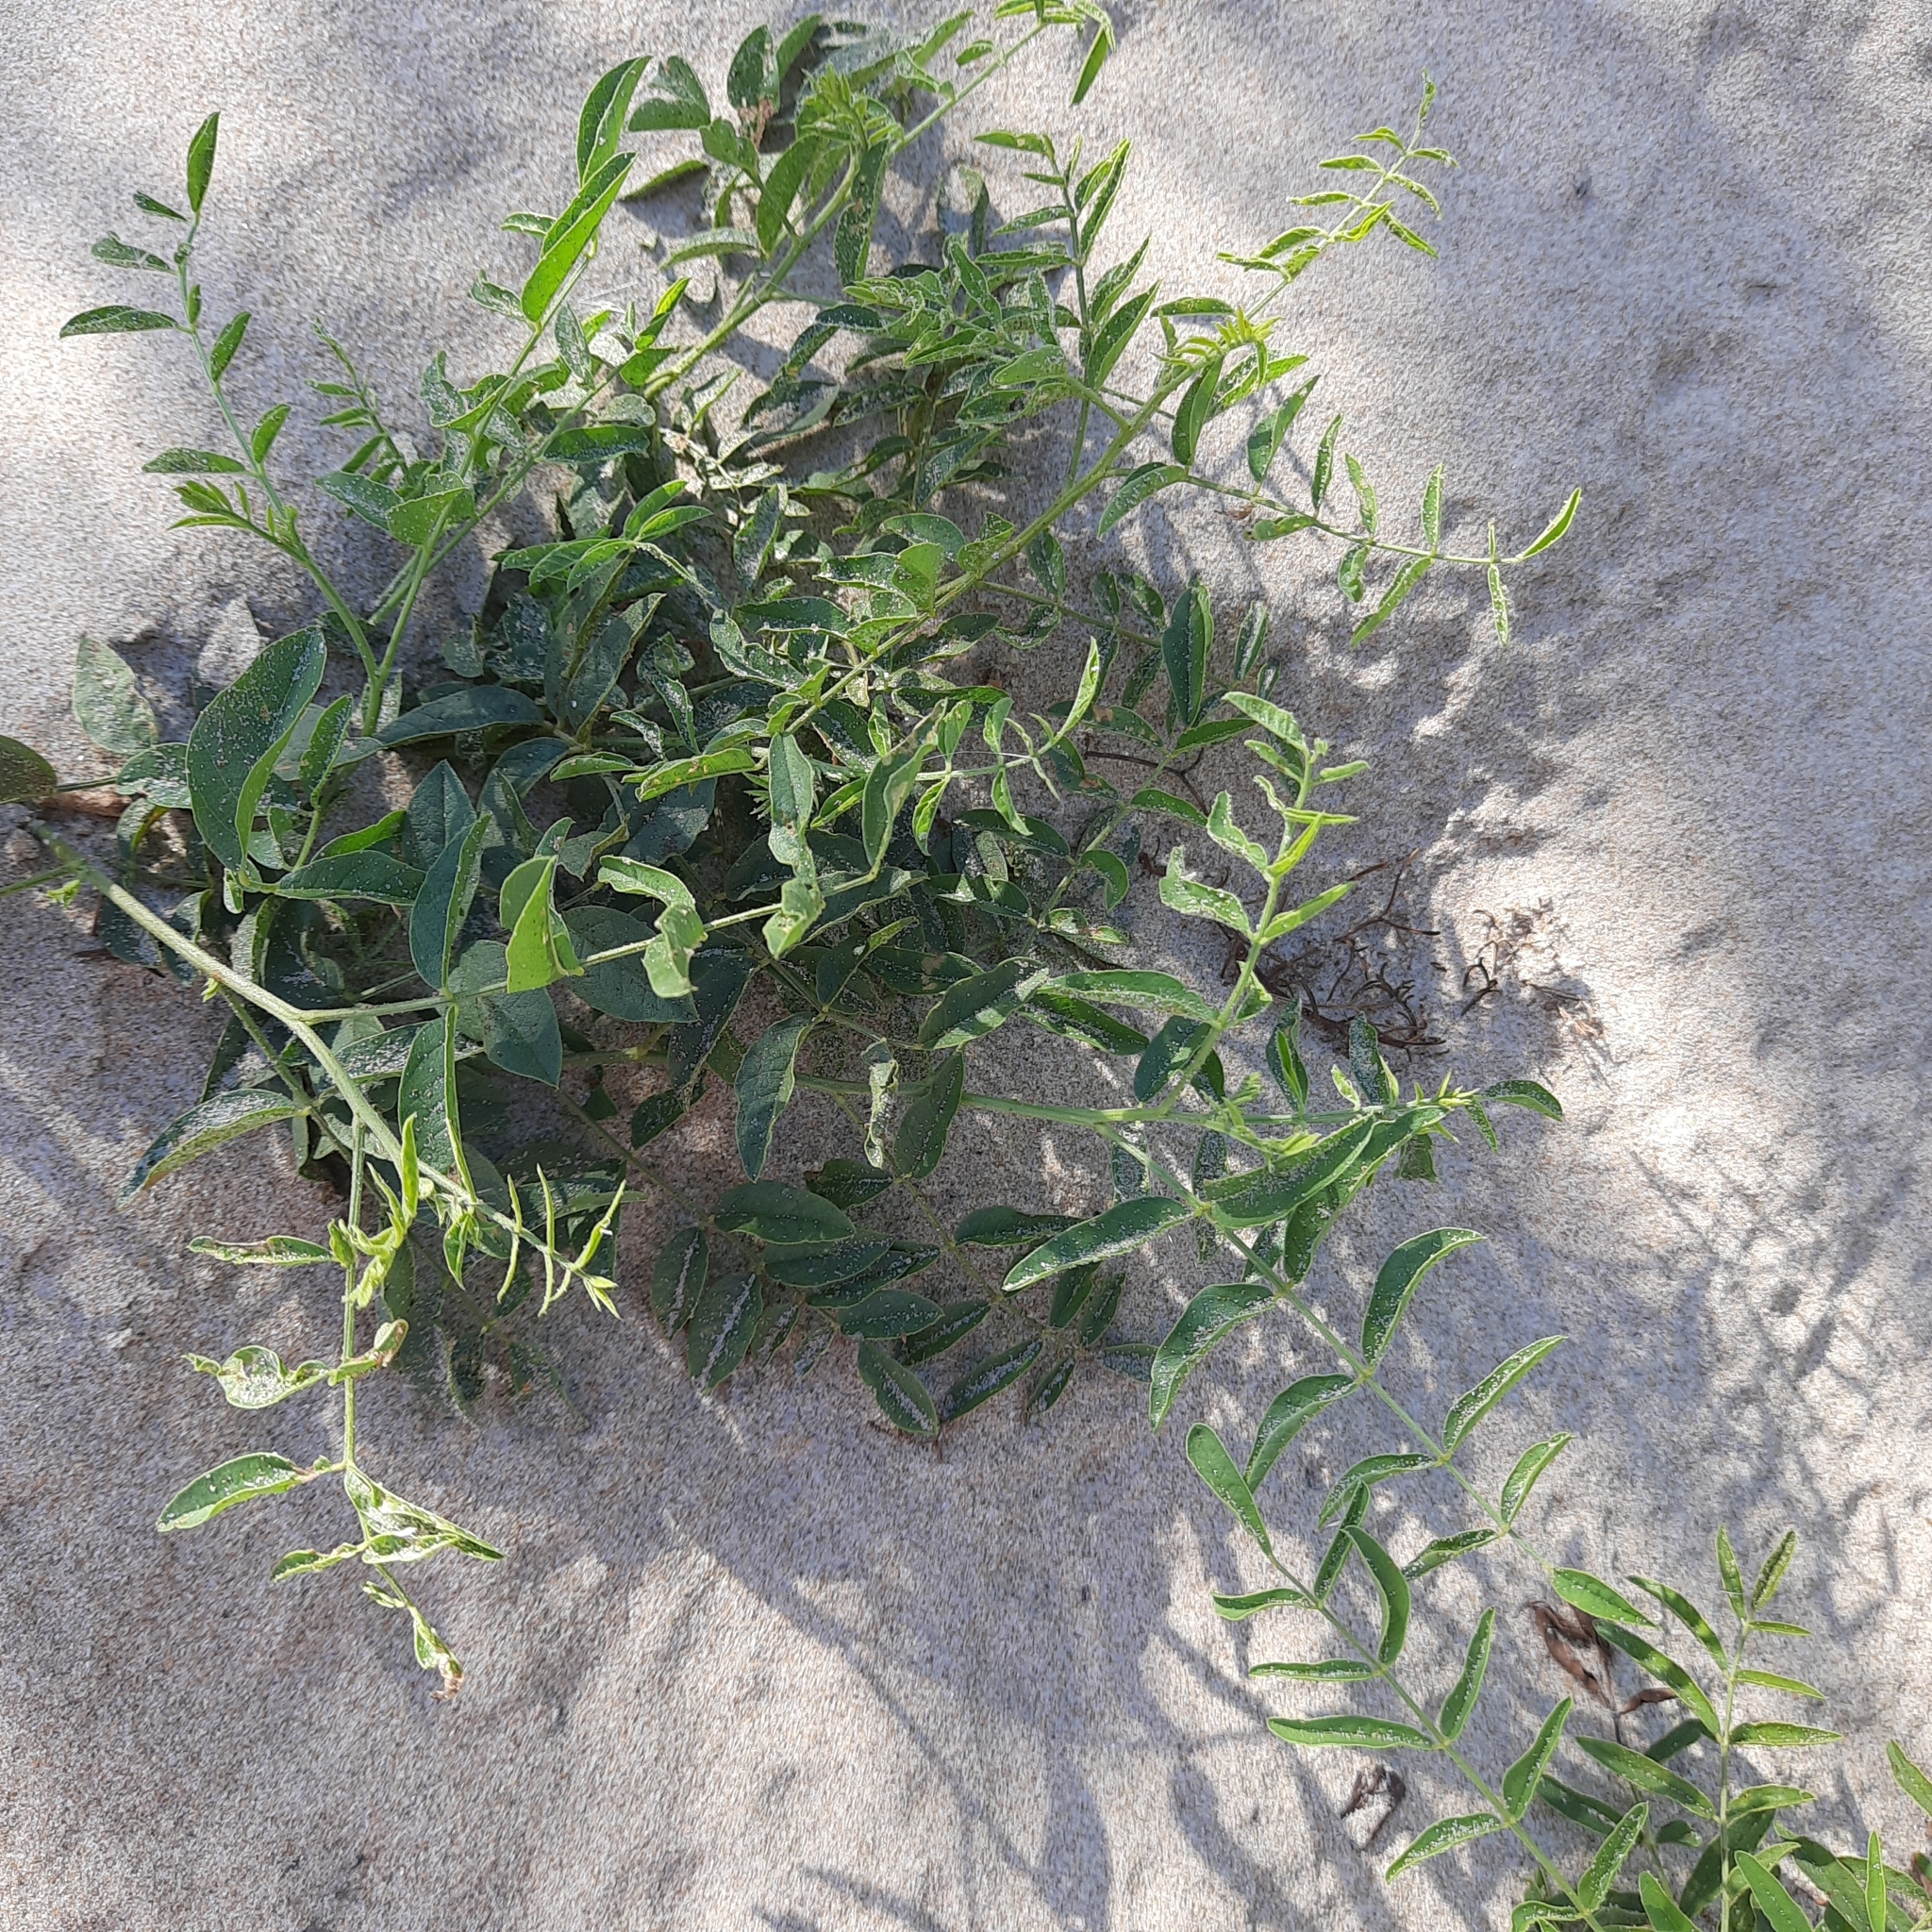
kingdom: Plantae
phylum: Tracheophyta
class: Magnoliopsida
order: Fabales
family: Fabaceae
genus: Glycyrrhiza
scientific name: Glycyrrhiza glabra
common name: Liquorice
